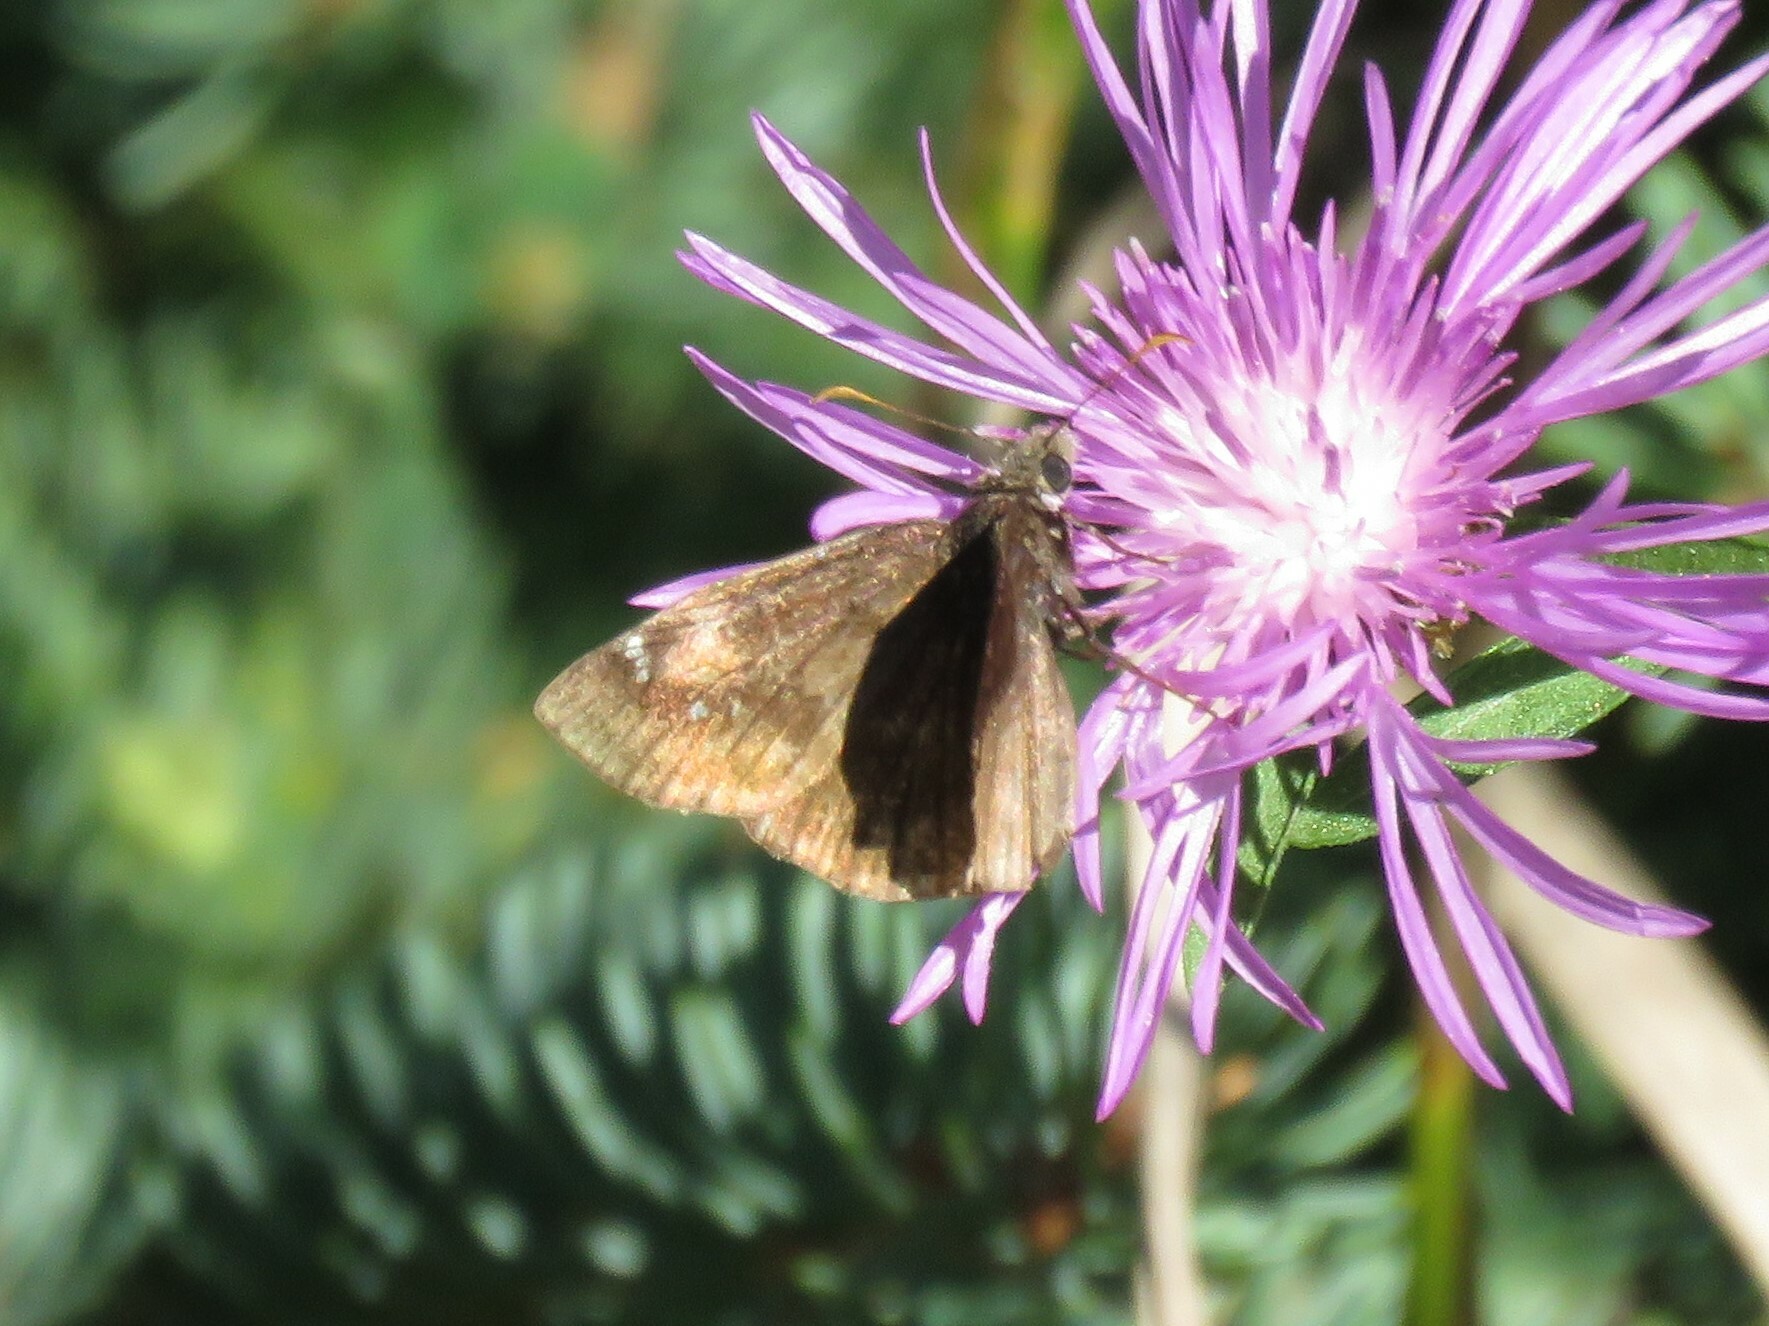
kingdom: Animalia
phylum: Arthropoda
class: Insecta
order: Lepidoptera
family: Hesperiidae
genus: Erynnis
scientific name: Erynnis baptisiae
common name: Wild indigo duskywing
